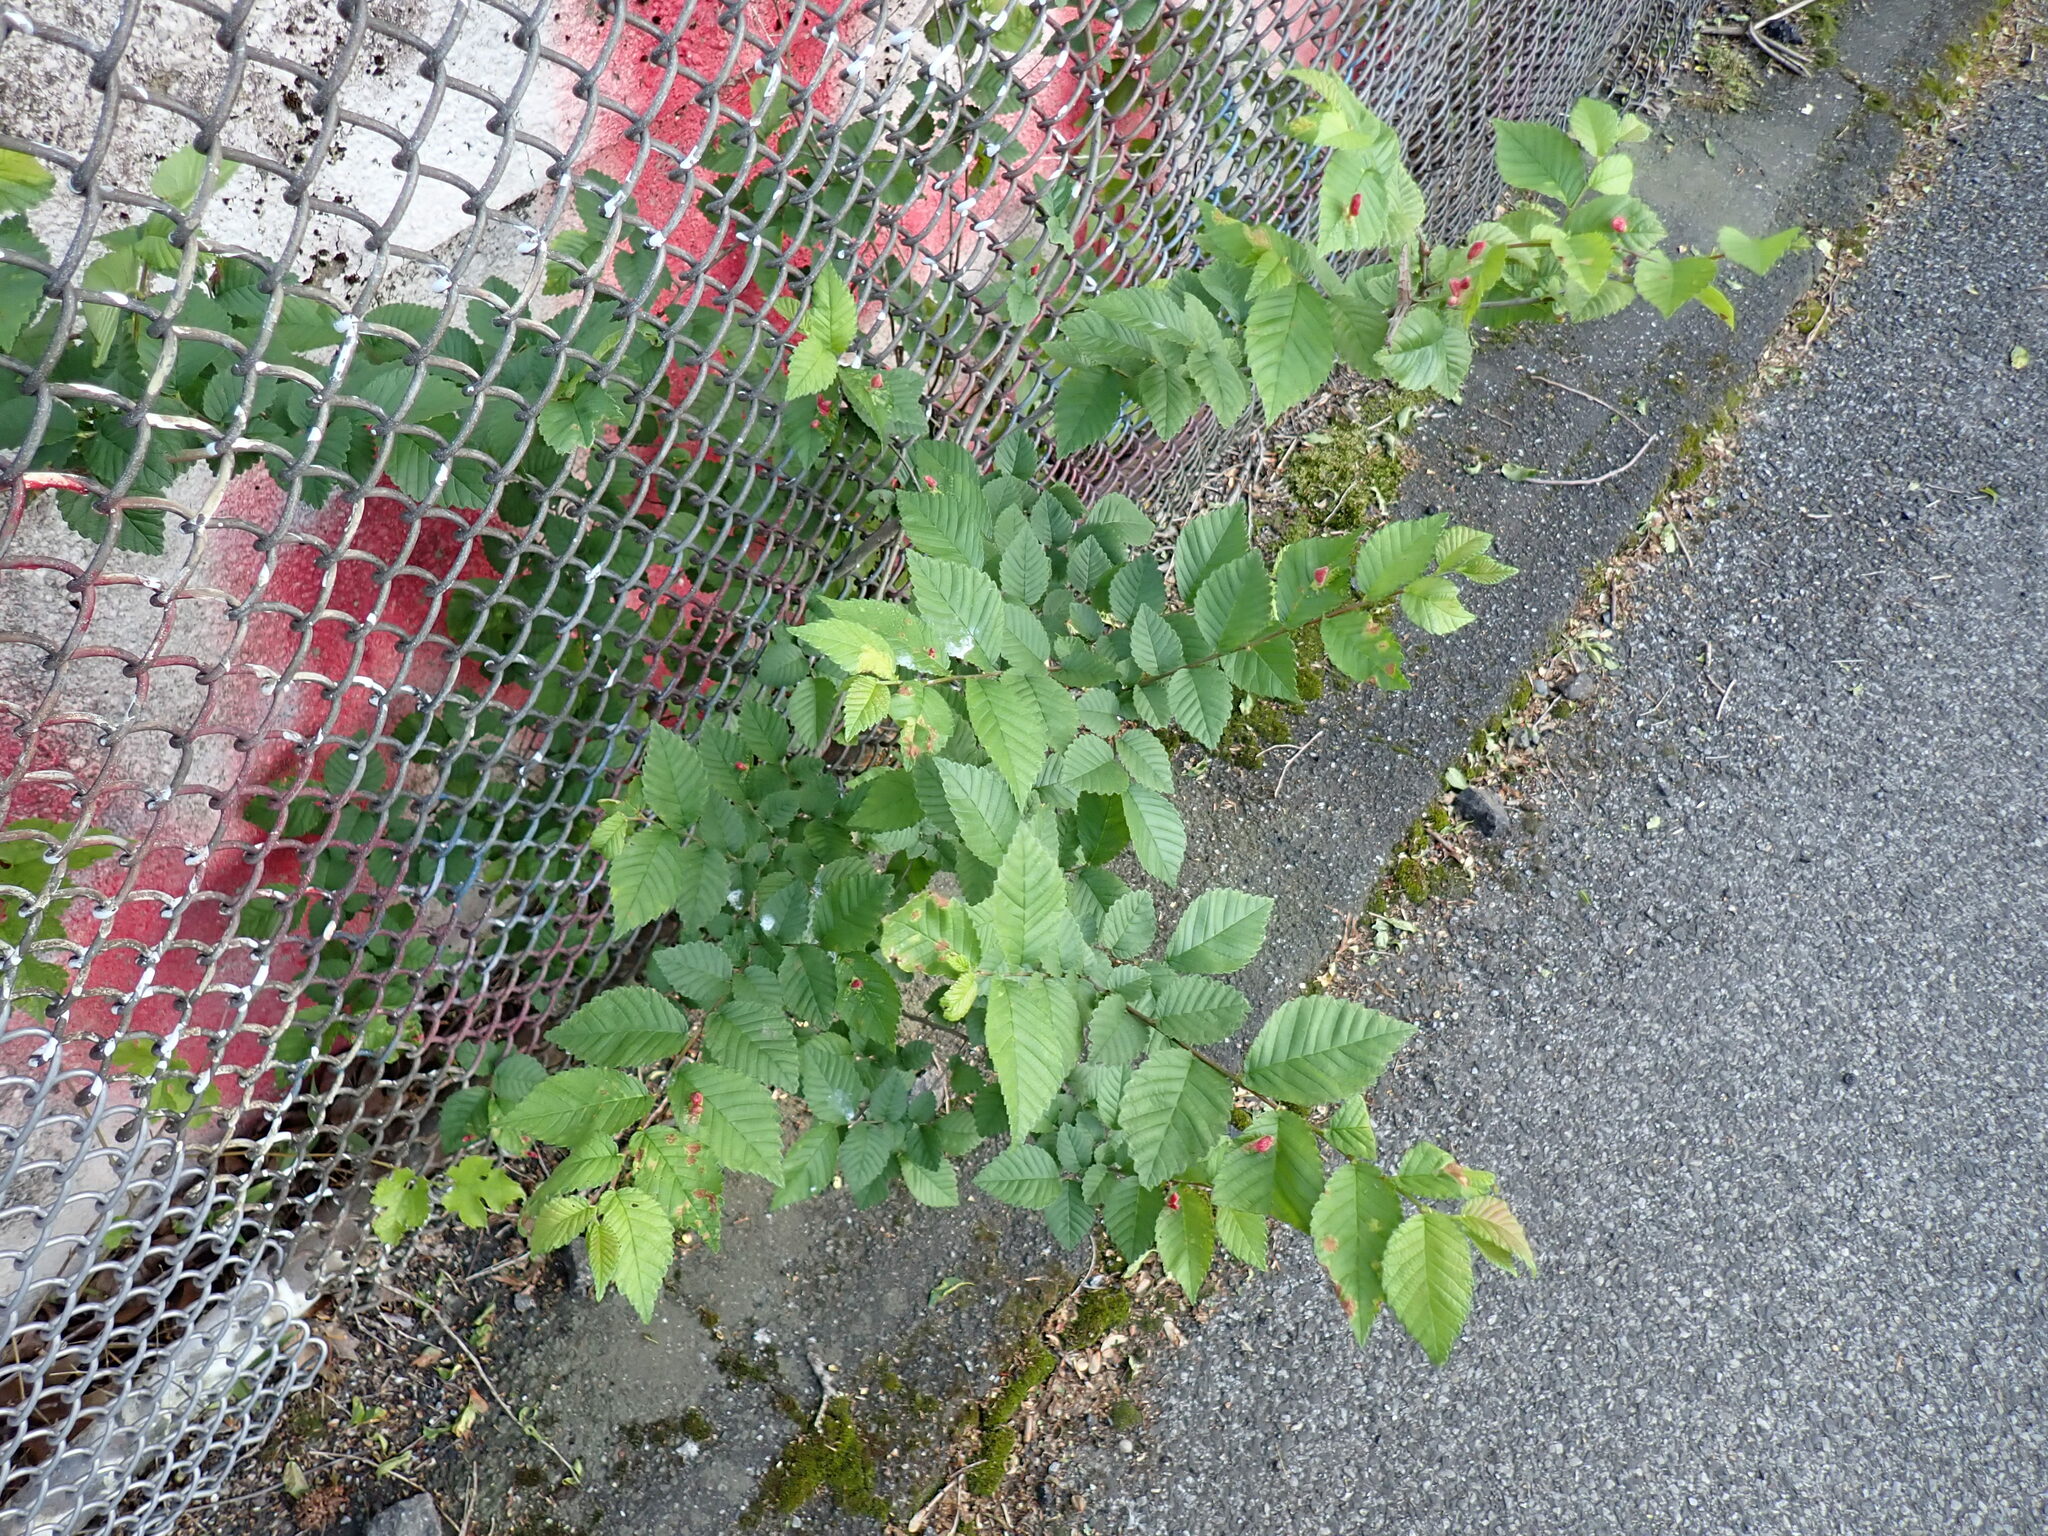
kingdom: Animalia
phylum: Arthropoda
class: Insecta
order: Hemiptera
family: Aphididae
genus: Tetraneura
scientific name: Tetraneura nigriabdominalis
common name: Aphid
